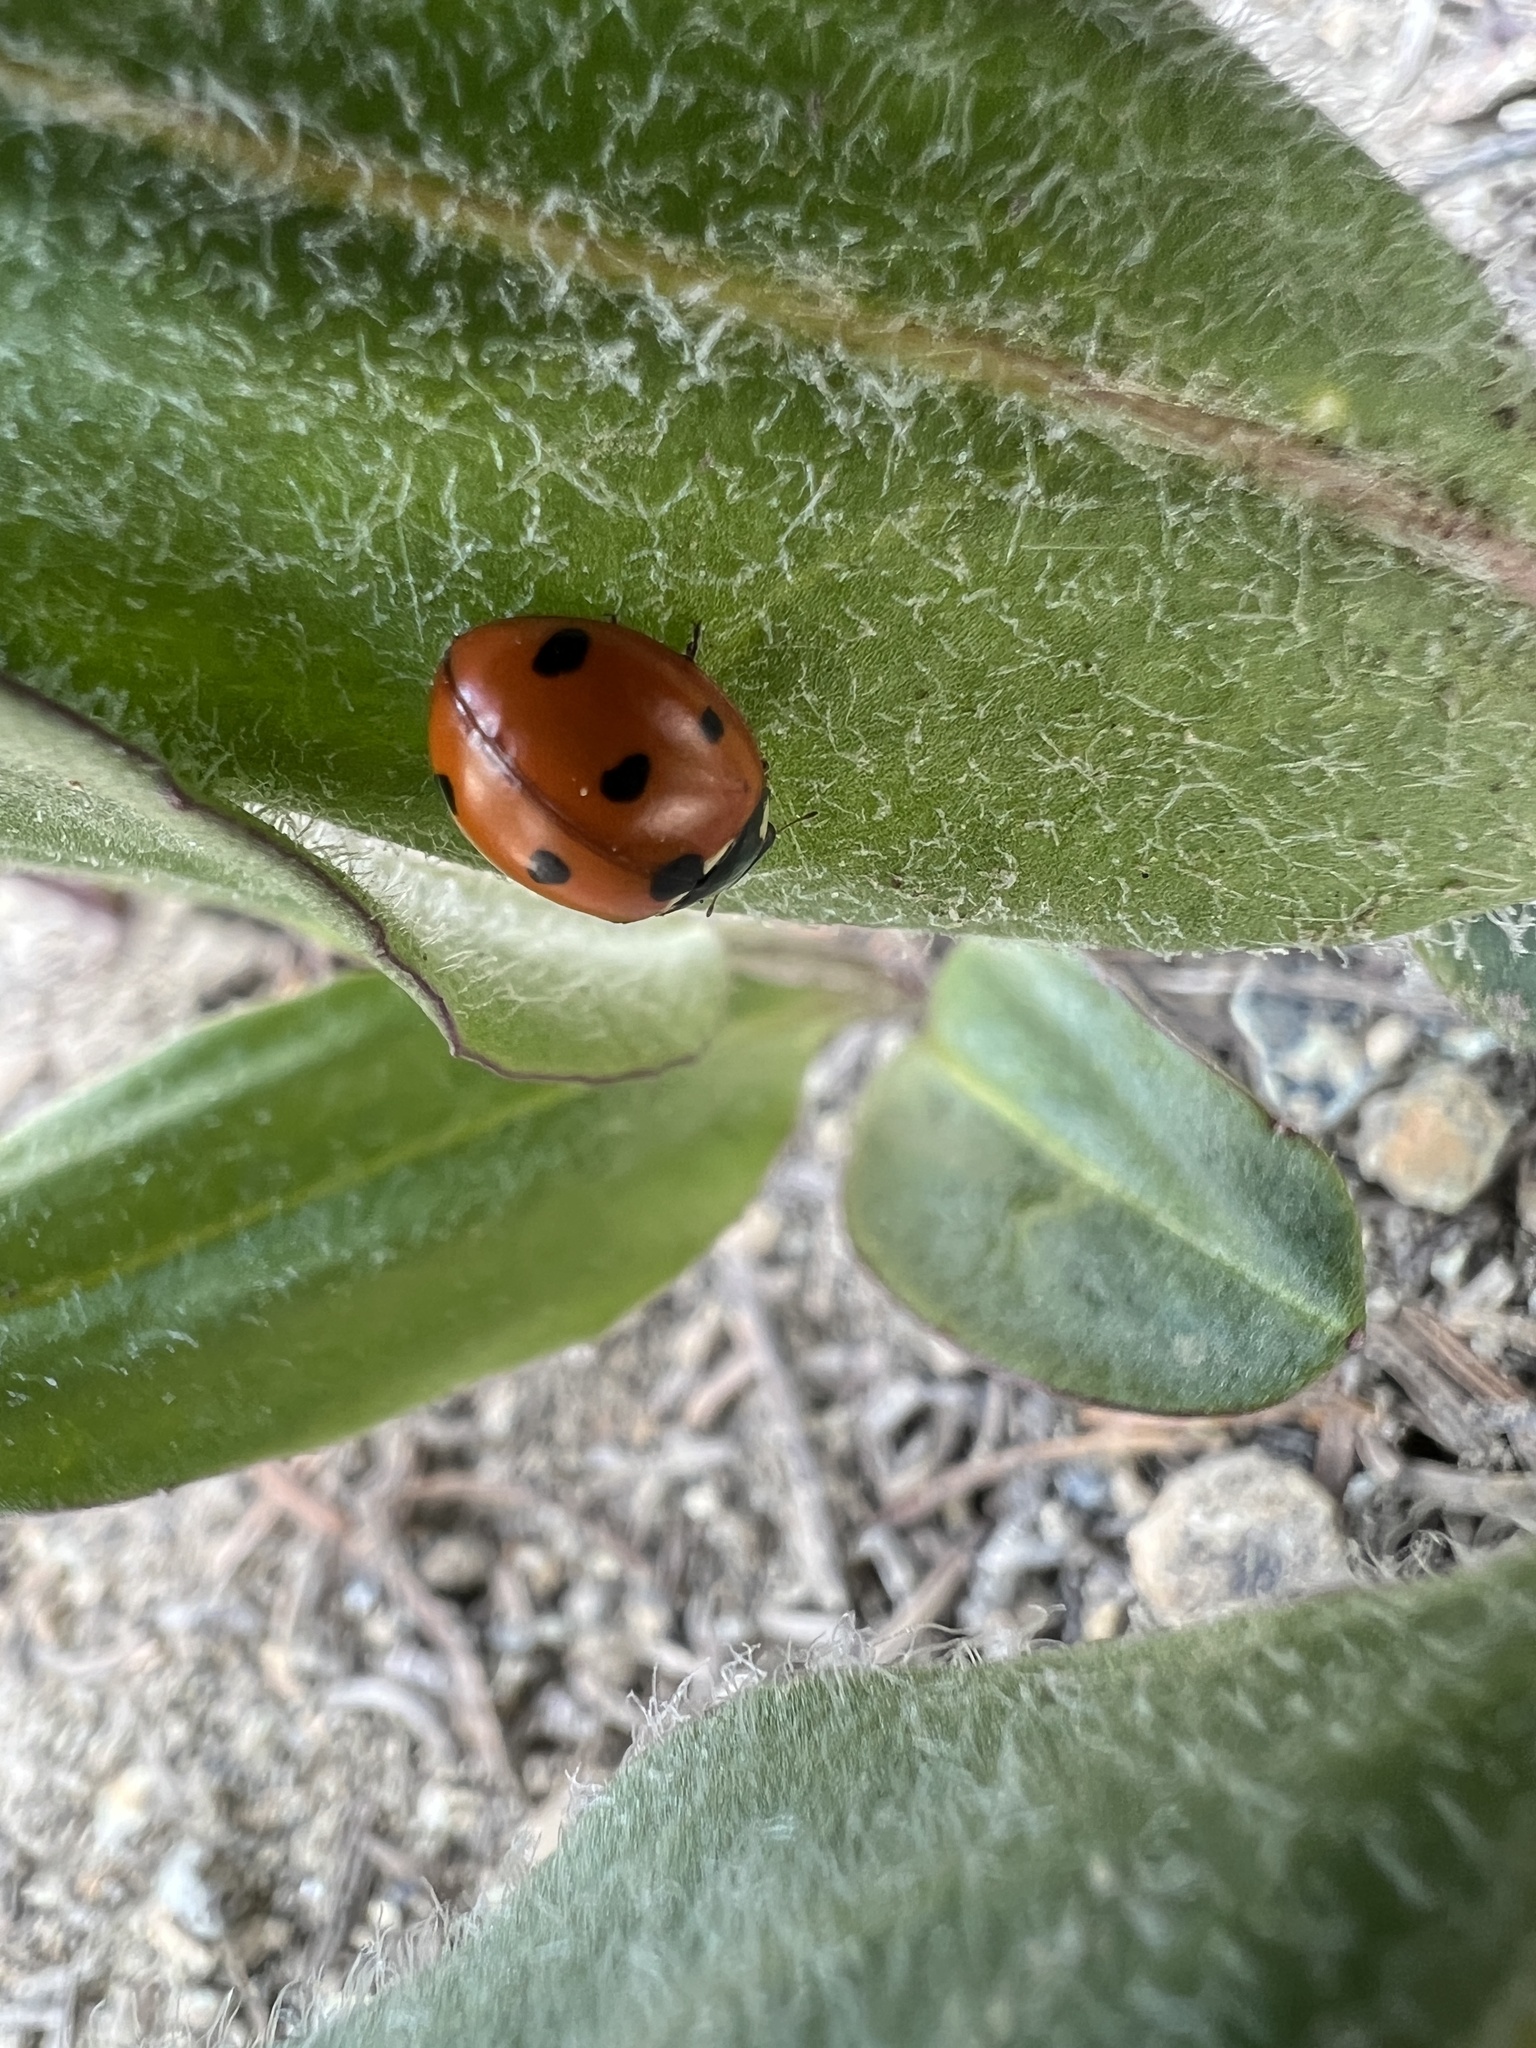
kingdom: Animalia
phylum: Arthropoda
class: Insecta
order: Coleoptera
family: Coccinellidae
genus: Coccinella
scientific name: Coccinella septempunctata
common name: Sevenspotted lady beetle
